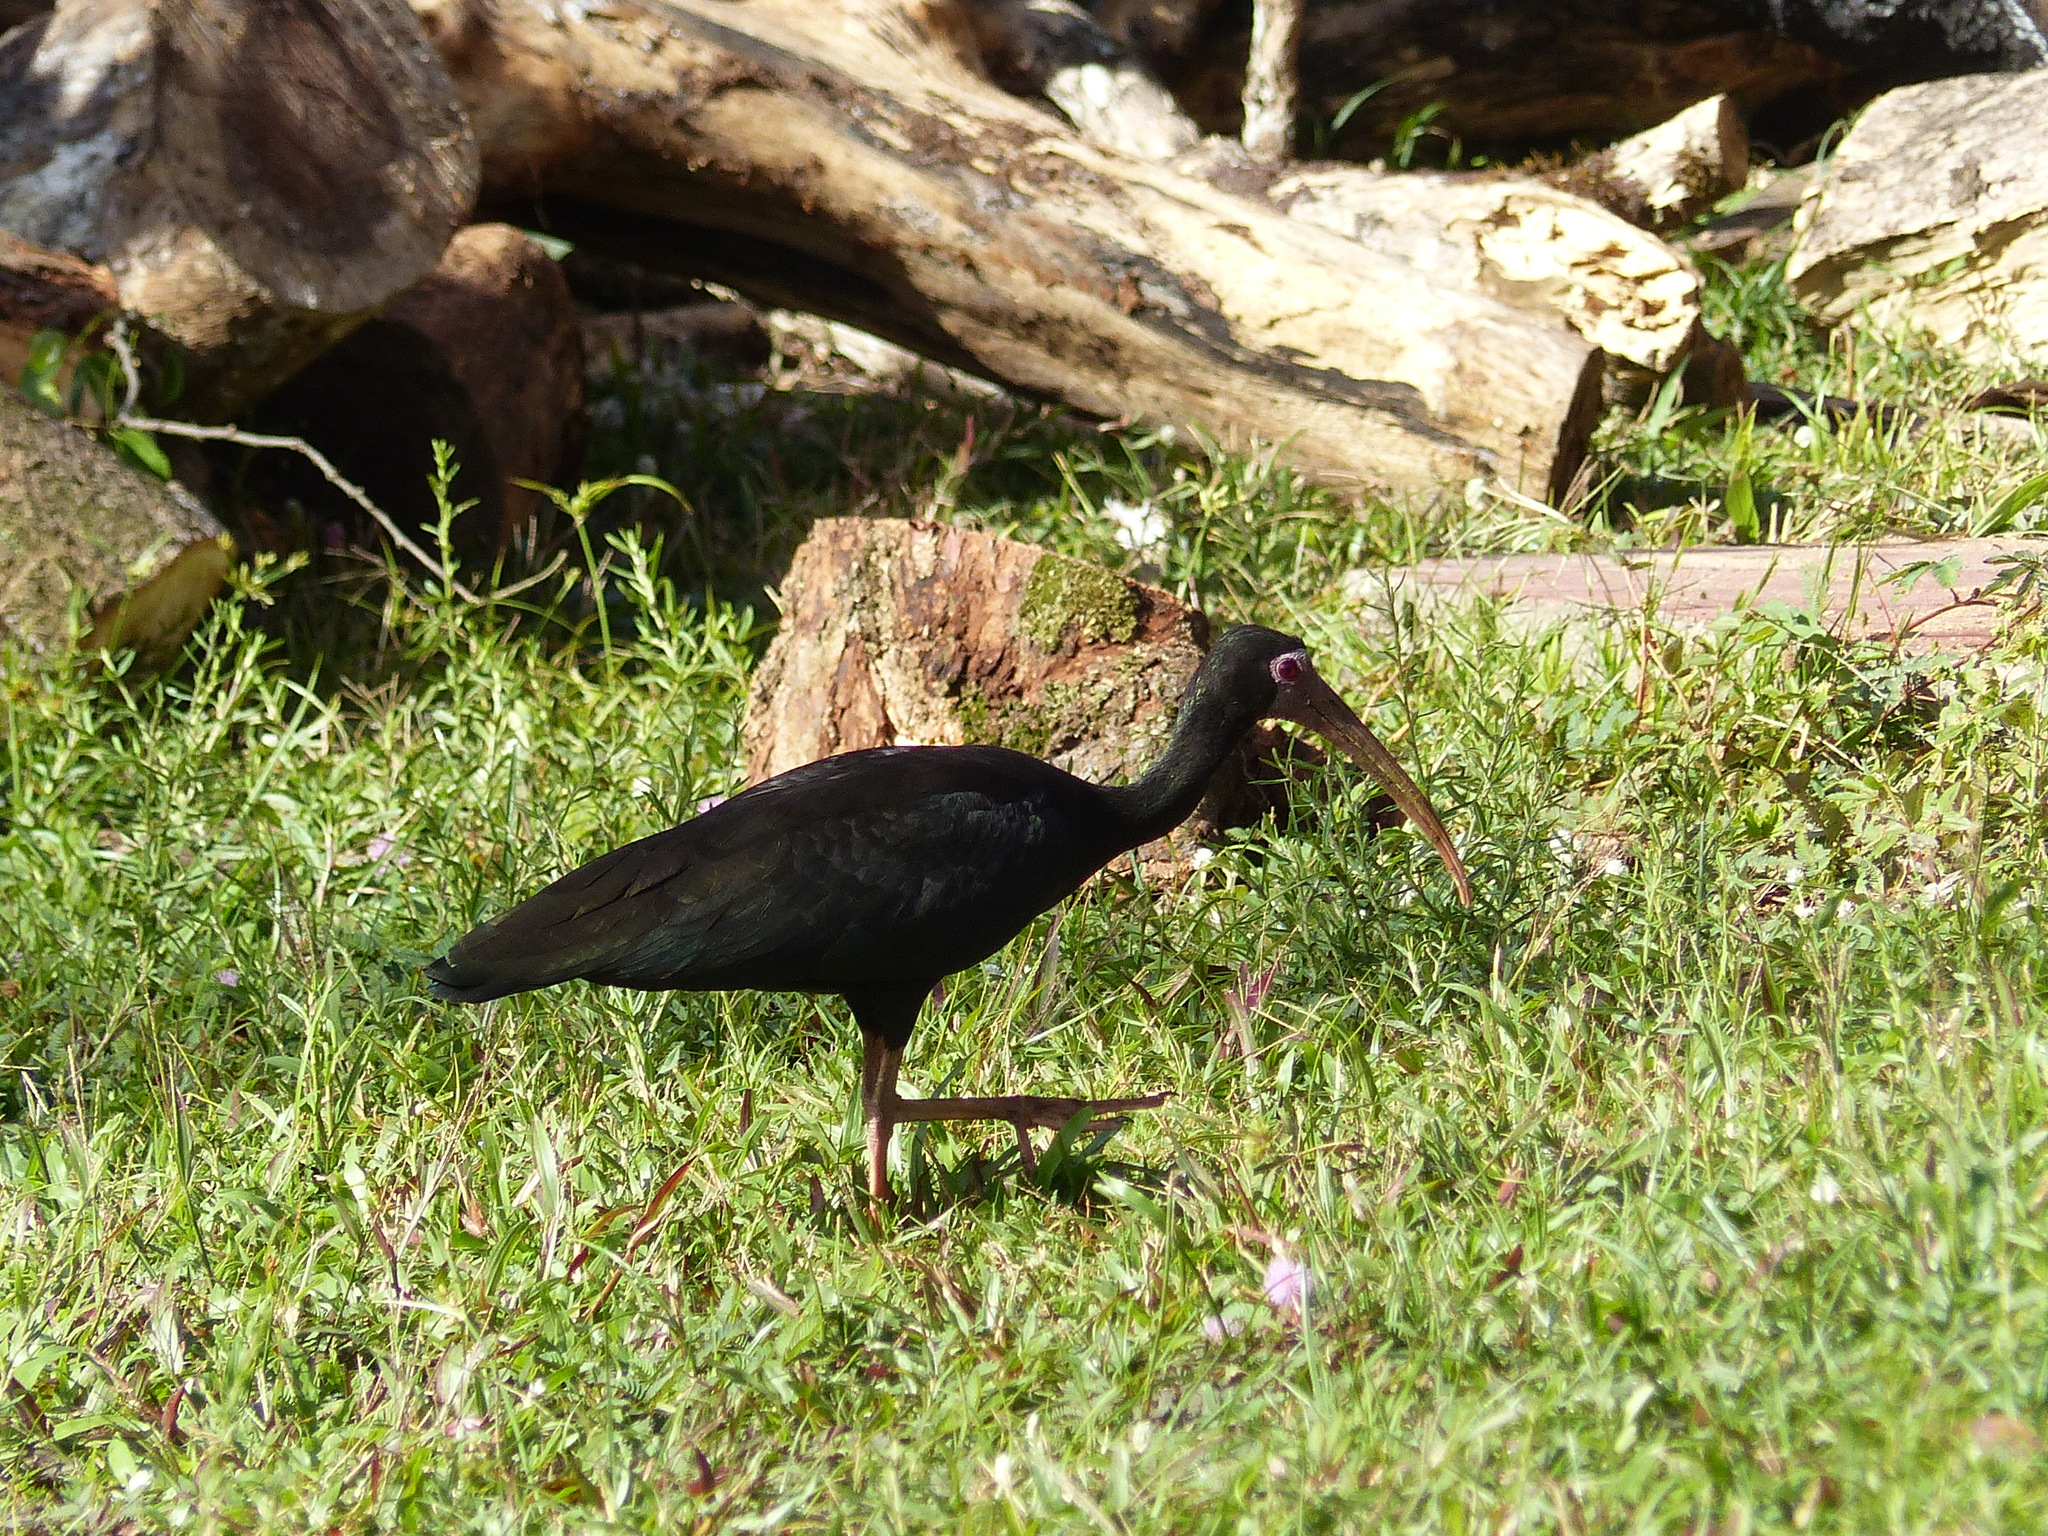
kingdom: Animalia
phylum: Chordata
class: Aves
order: Pelecaniformes
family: Threskiornithidae
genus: Phimosus
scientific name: Phimosus infuscatus
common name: Bare-faced ibis
